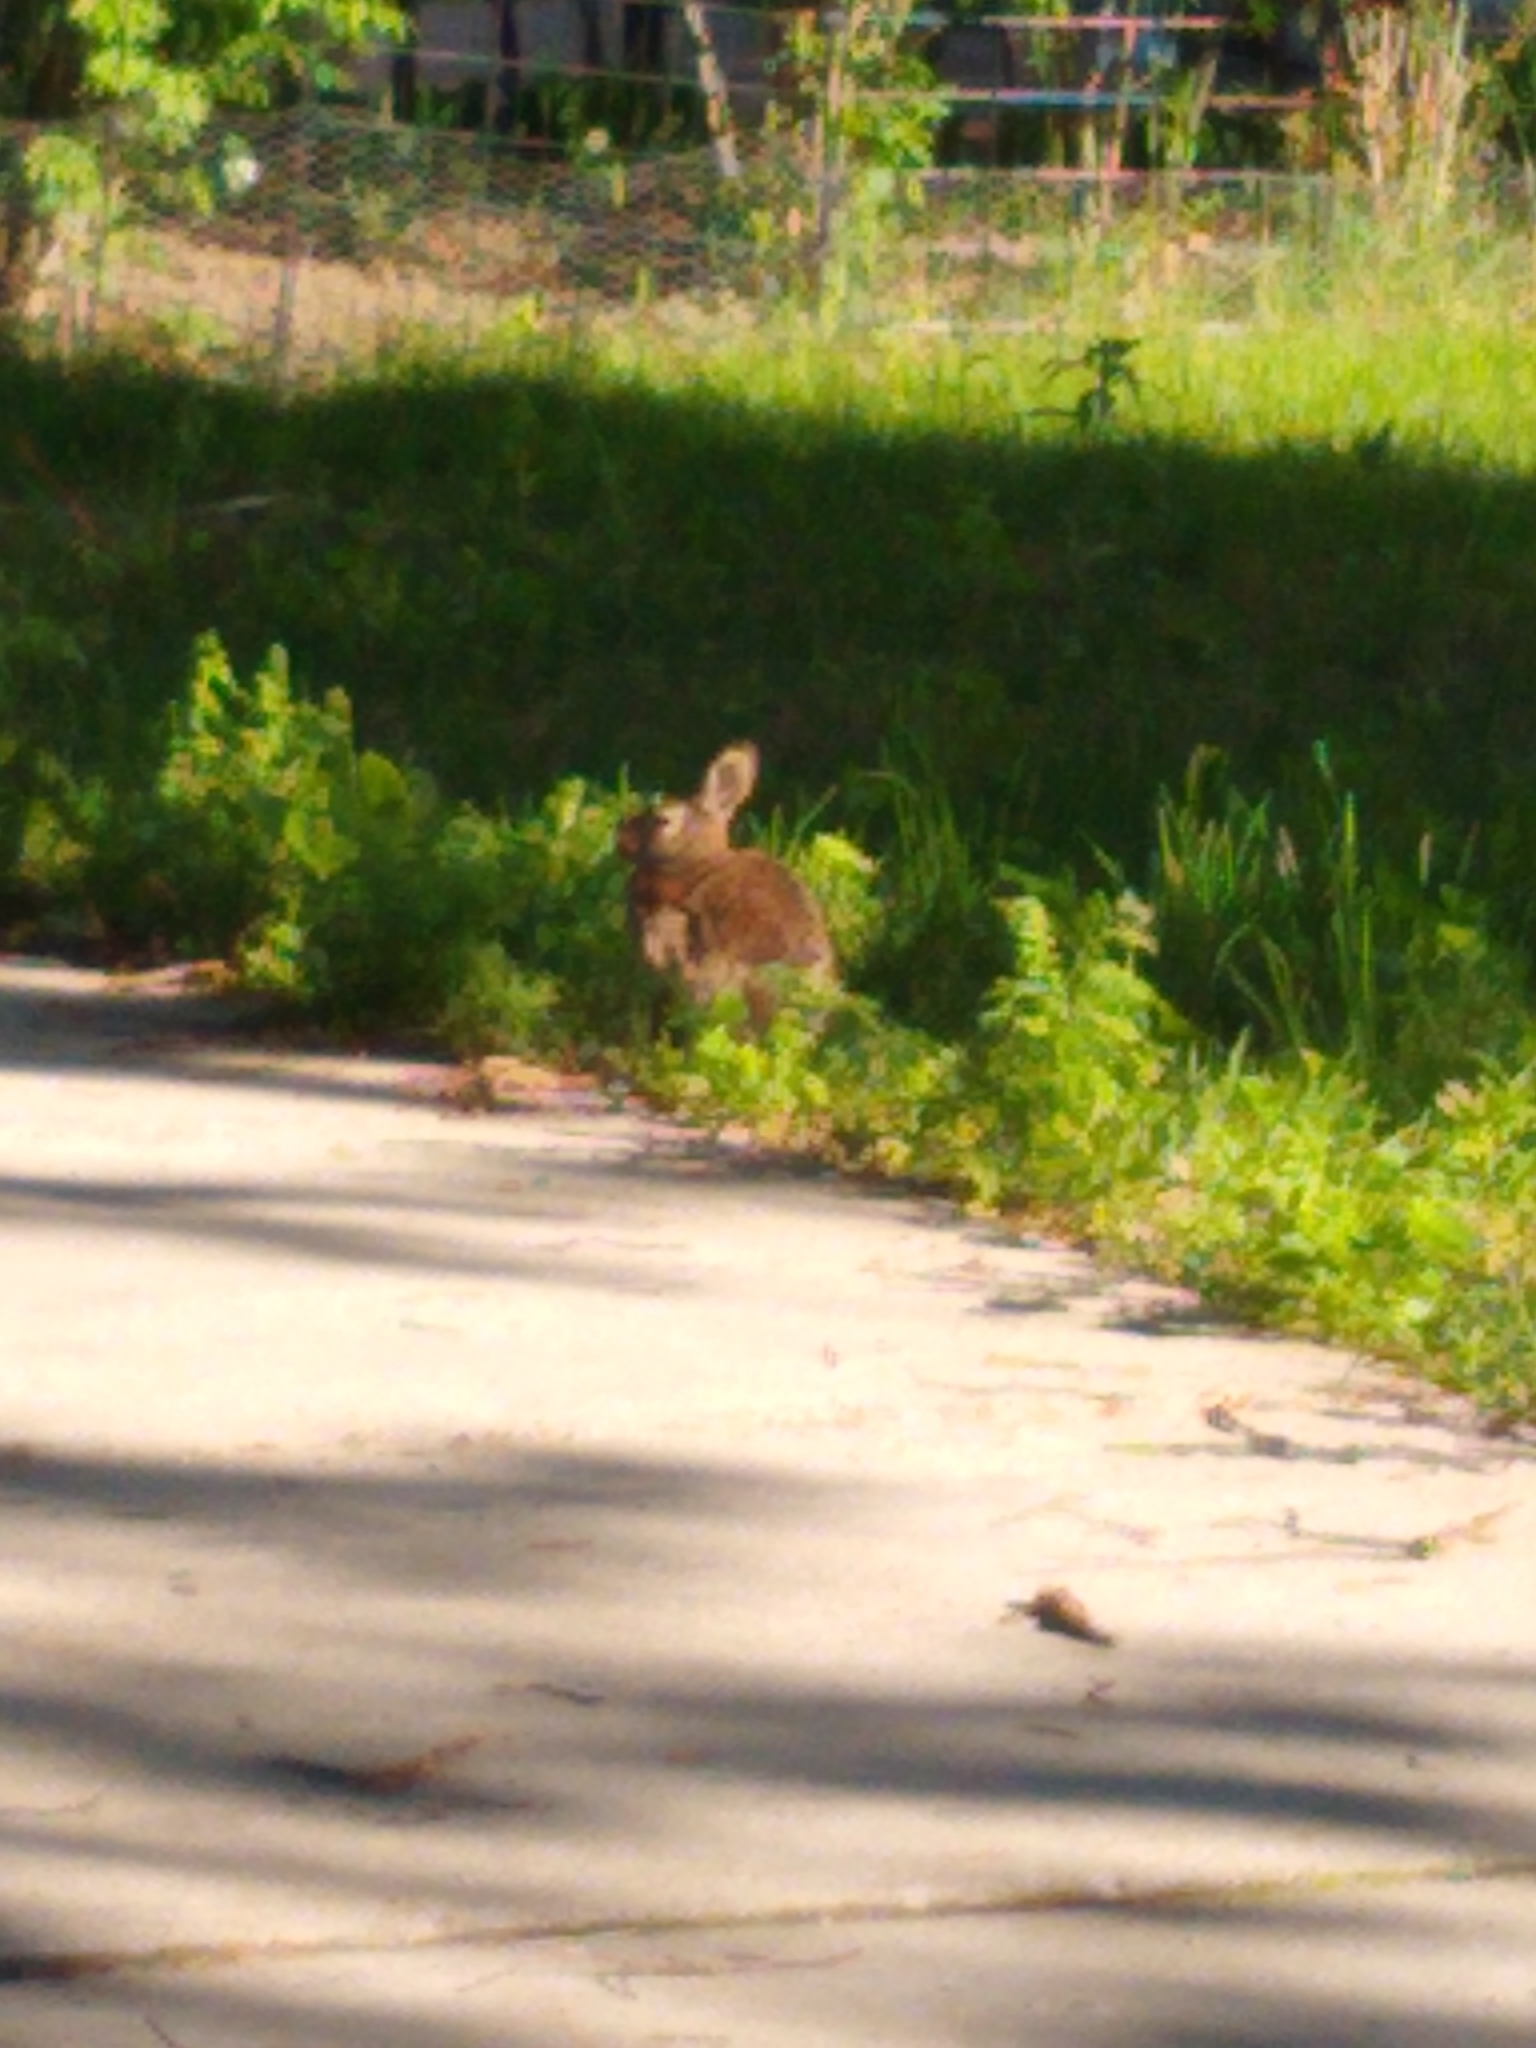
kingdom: Animalia
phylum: Chordata
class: Mammalia
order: Lagomorpha
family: Leporidae
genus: Sylvilagus
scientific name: Sylvilagus floridanus
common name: Eastern cottontail
